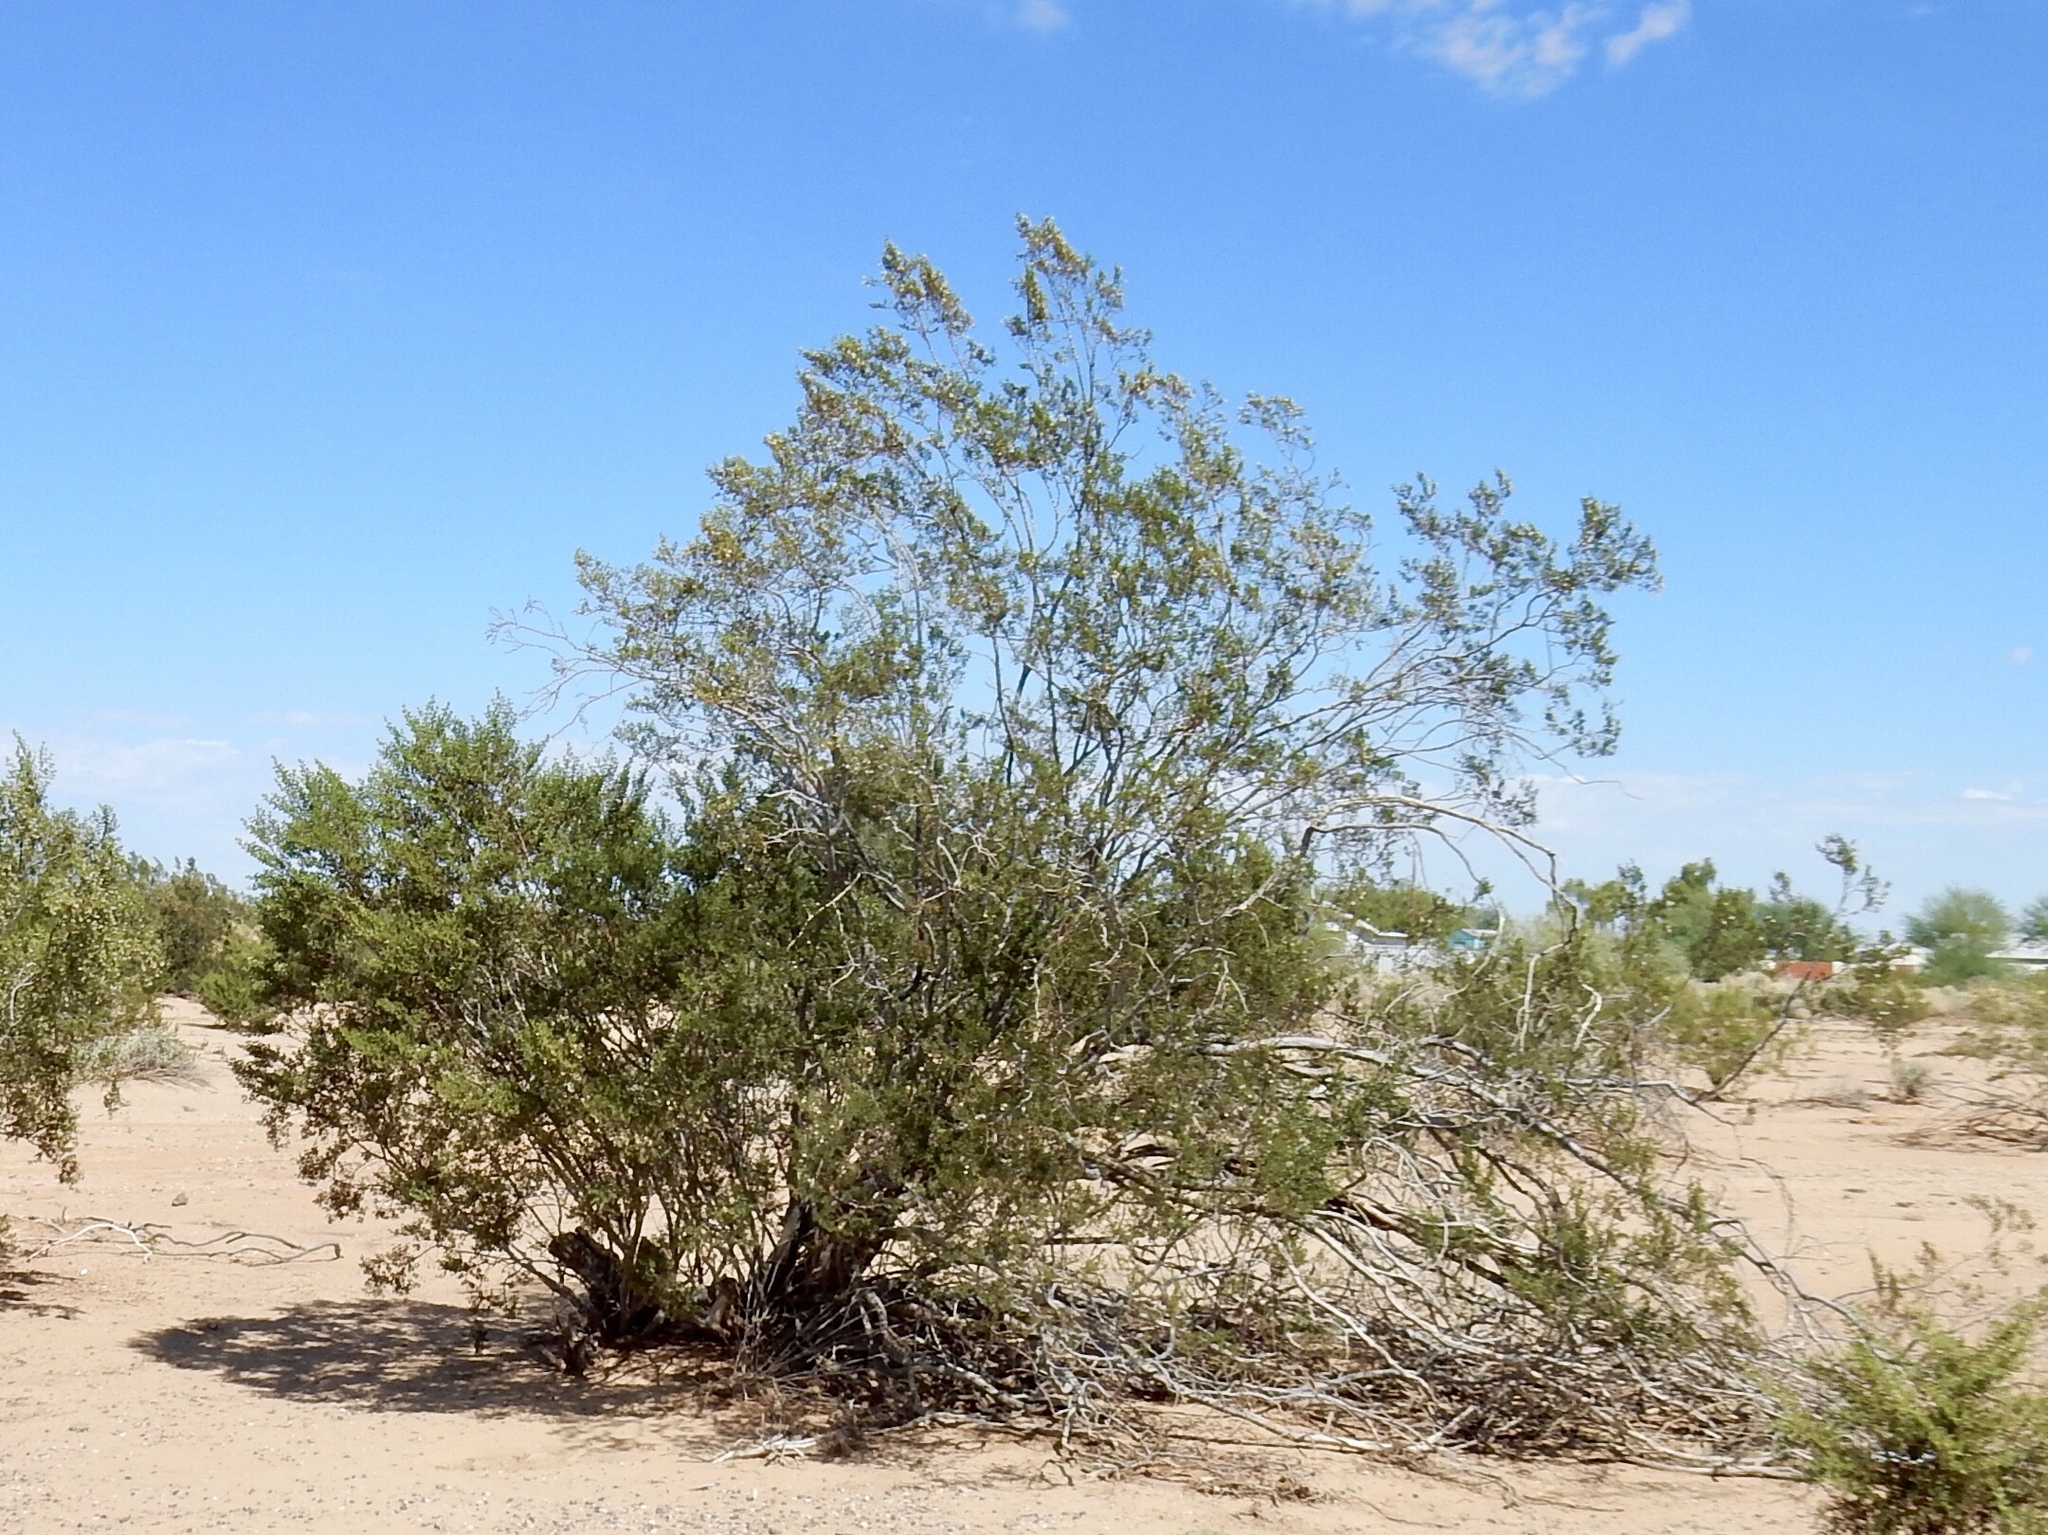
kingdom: Plantae
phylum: Tracheophyta
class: Magnoliopsida
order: Zygophyllales
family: Zygophyllaceae
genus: Larrea
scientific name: Larrea tridentata
